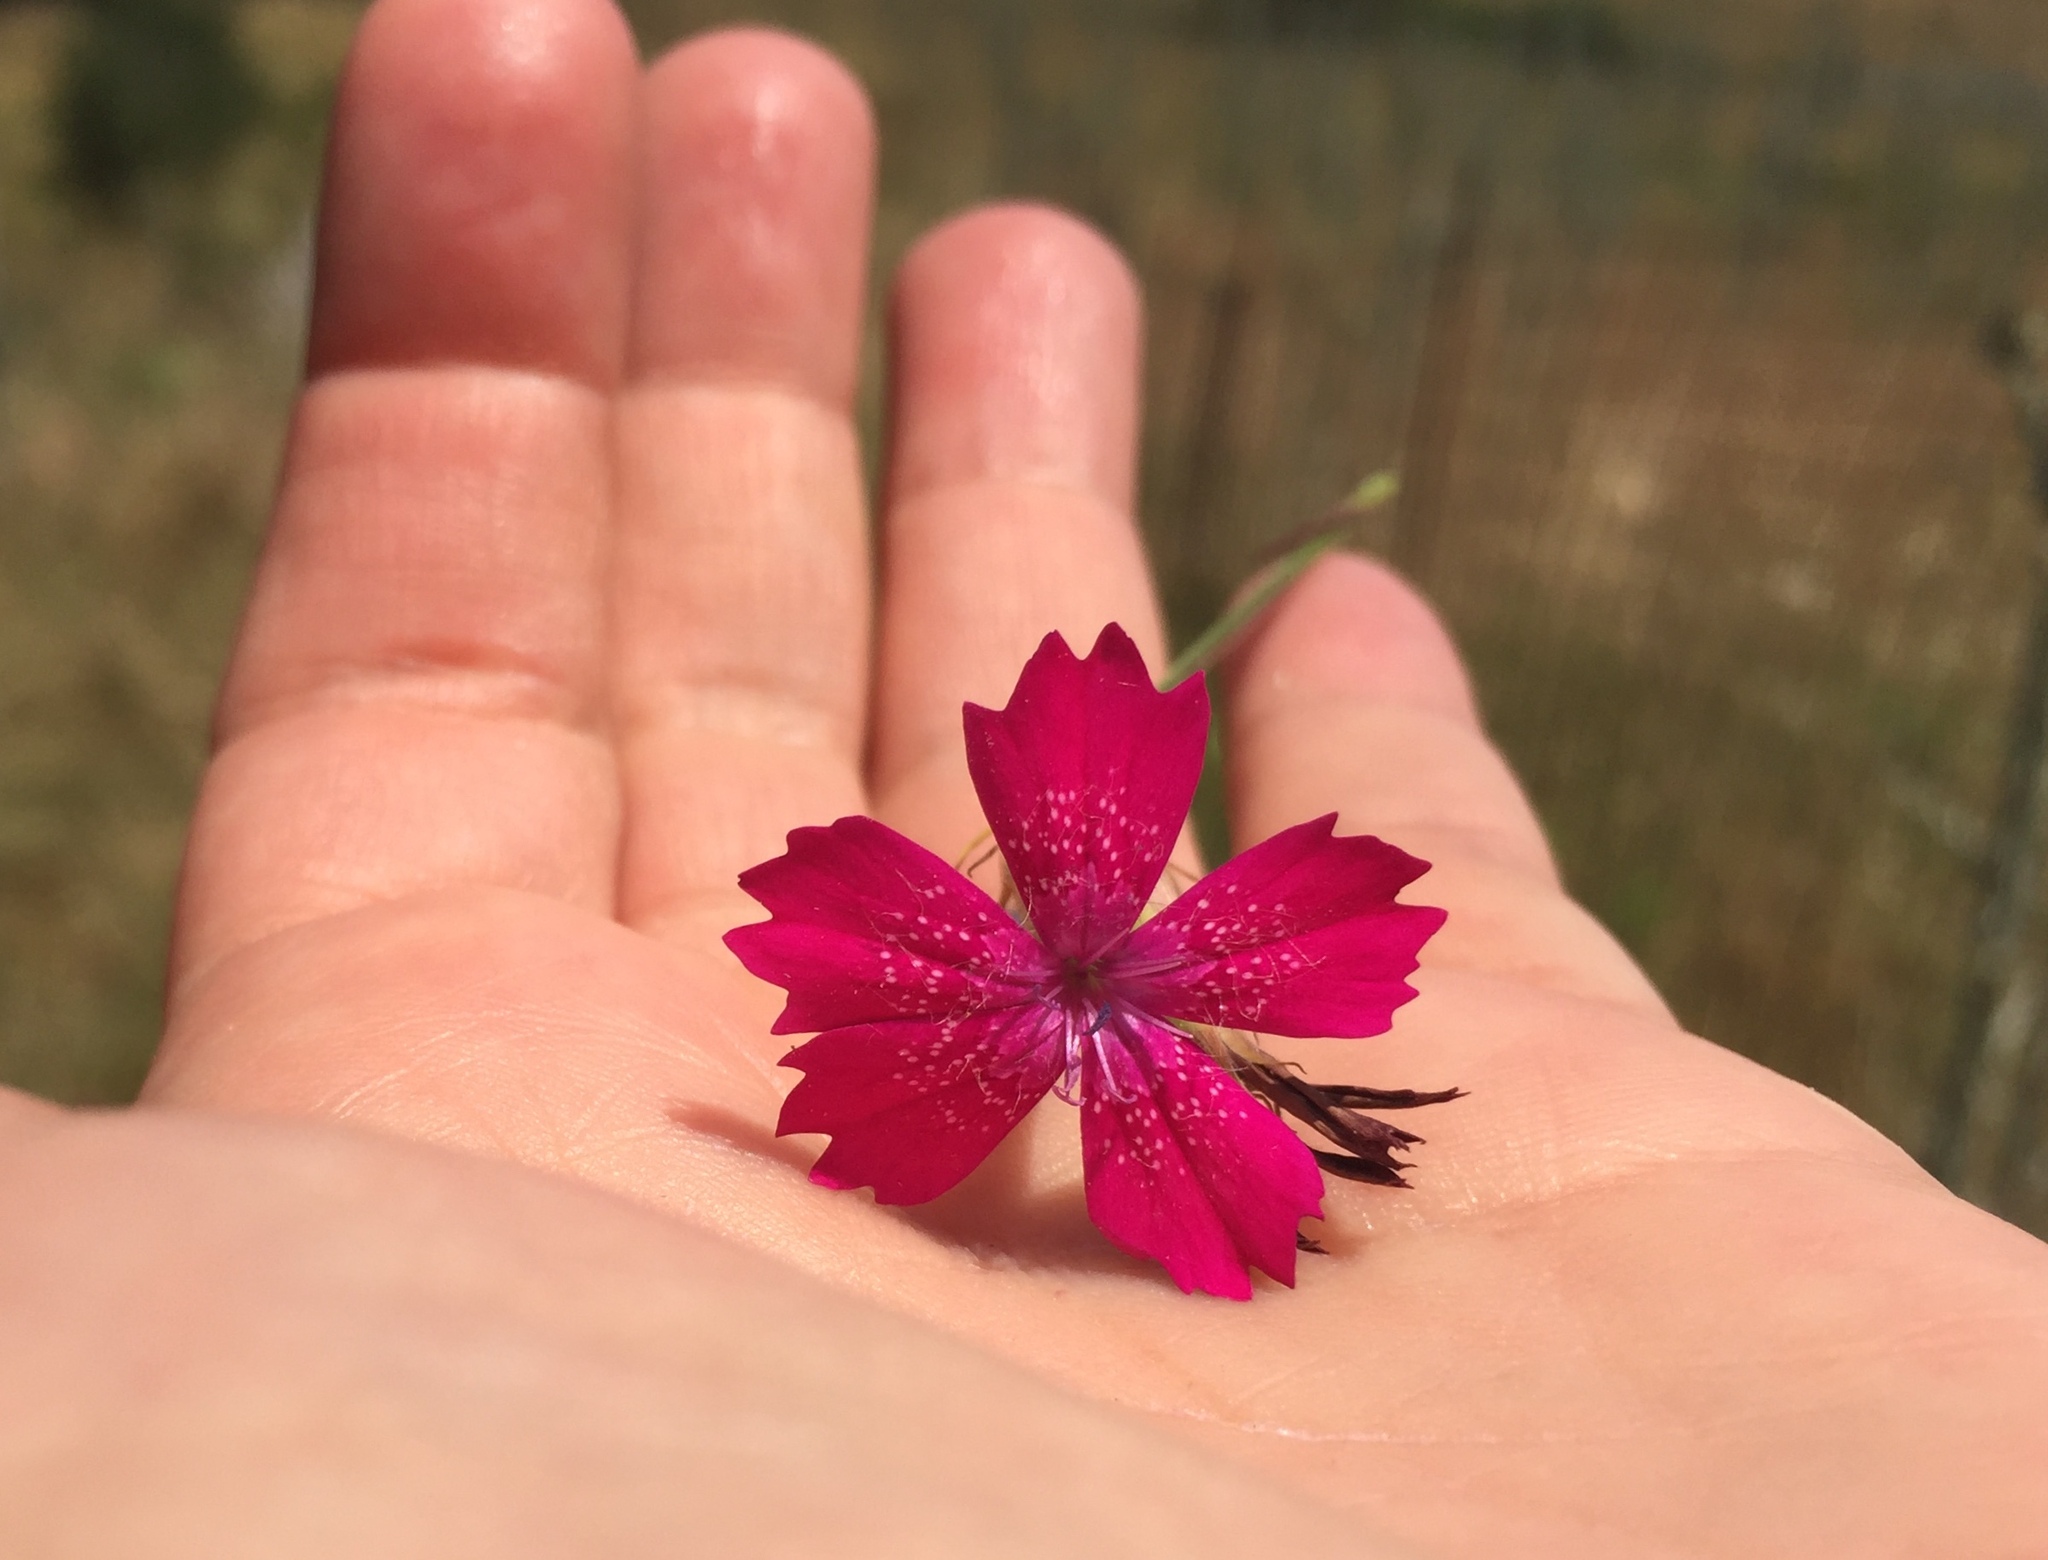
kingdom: Plantae
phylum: Tracheophyta
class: Magnoliopsida
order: Caryophyllales
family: Caryophyllaceae
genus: Dianthus
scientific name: Dianthus viscidus
